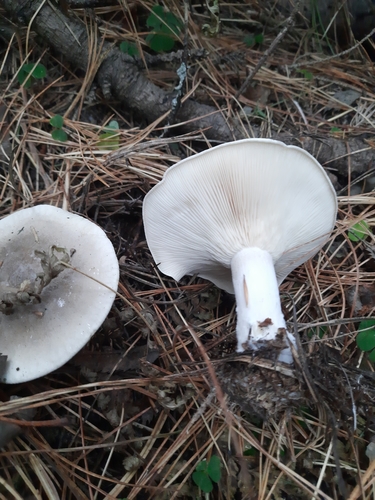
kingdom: Fungi
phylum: Basidiomycota
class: Agaricomycetes
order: Agaricales
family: Tricholomataceae
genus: Clitocybe
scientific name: Clitocybe nebularis
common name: Clouded agaric
